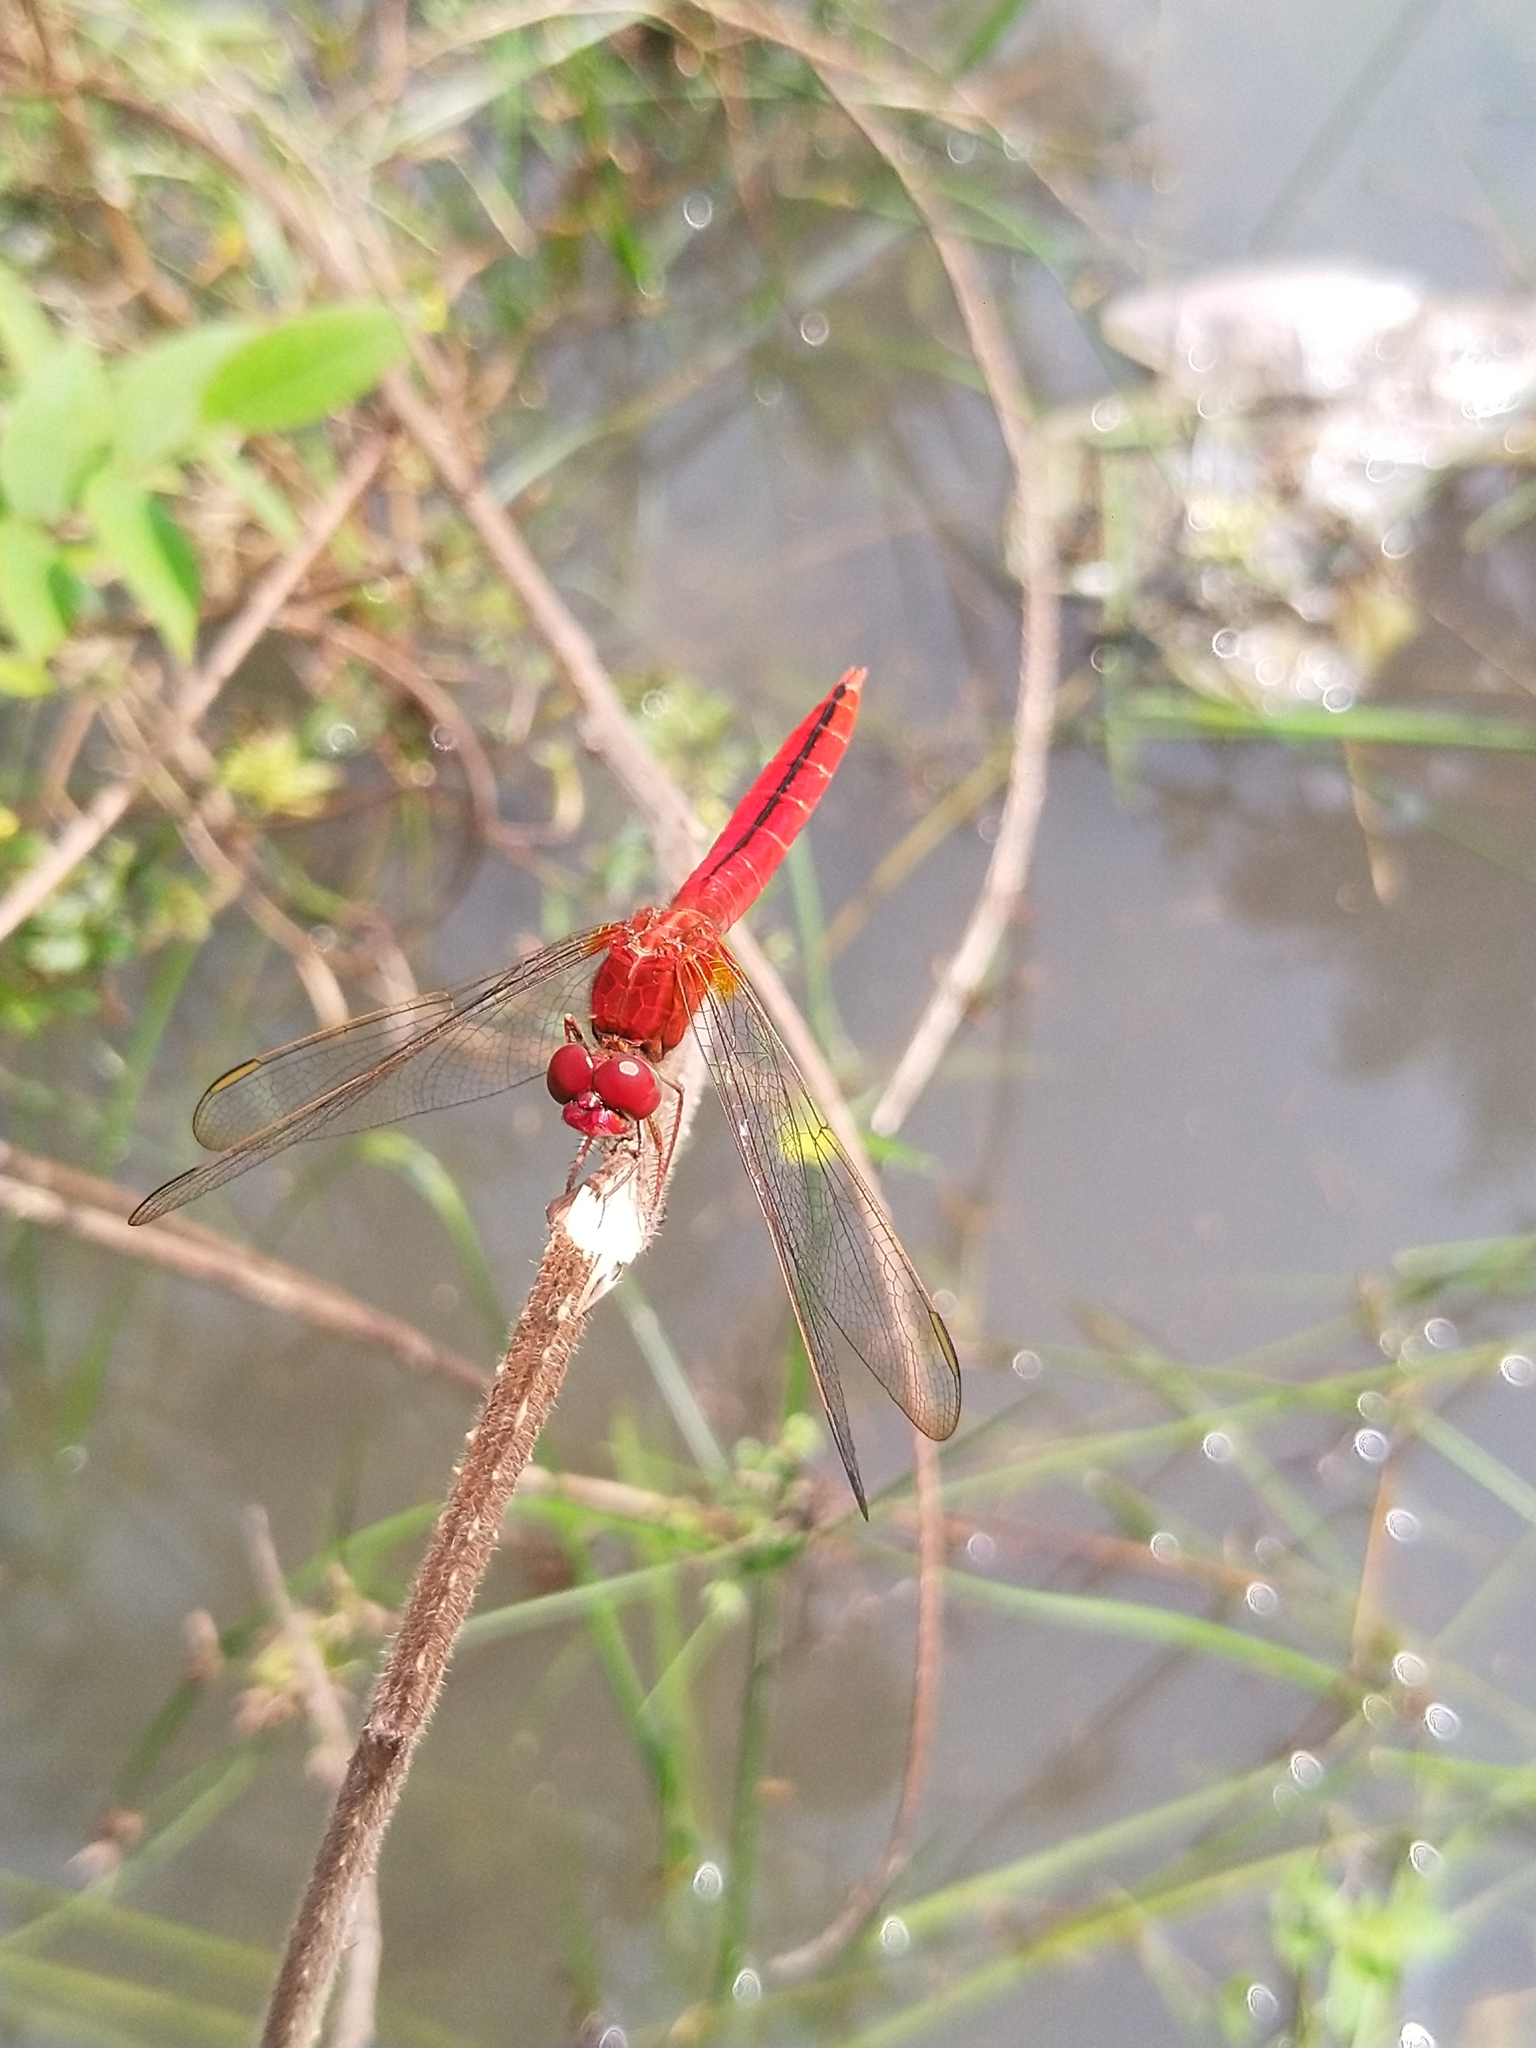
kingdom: Animalia
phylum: Arthropoda
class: Insecta
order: Odonata
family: Libellulidae
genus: Crocothemis
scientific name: Crocothemis servilia
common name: Scarlet skimmer
